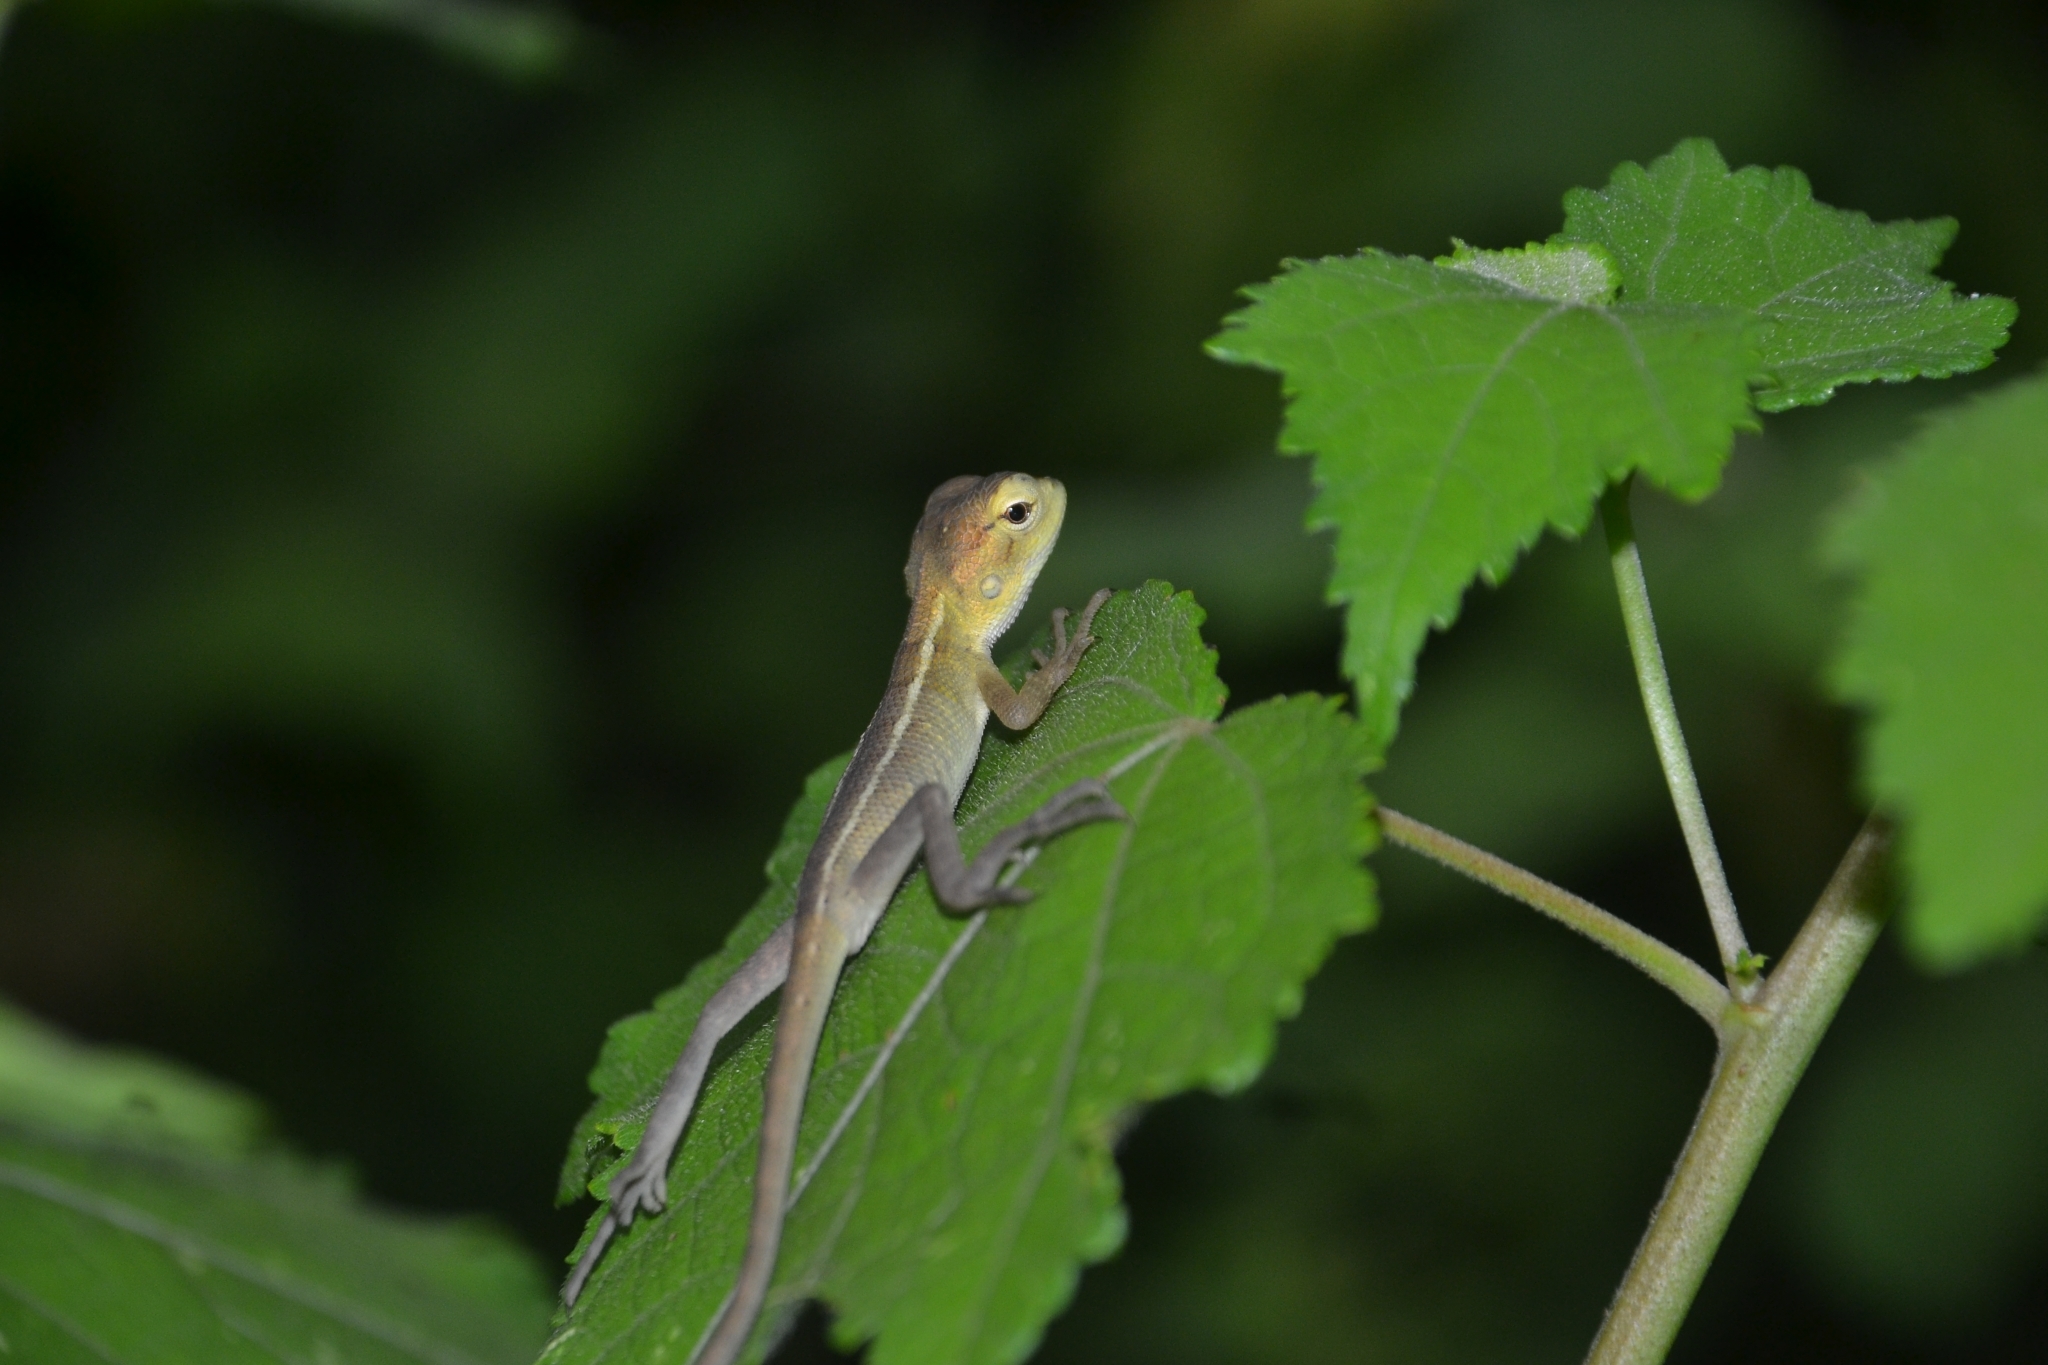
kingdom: Animalia
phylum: Chordata
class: Squamata
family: Agamidae
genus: Calotes
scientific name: Calotes versicolor
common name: Oriental garden lizard
